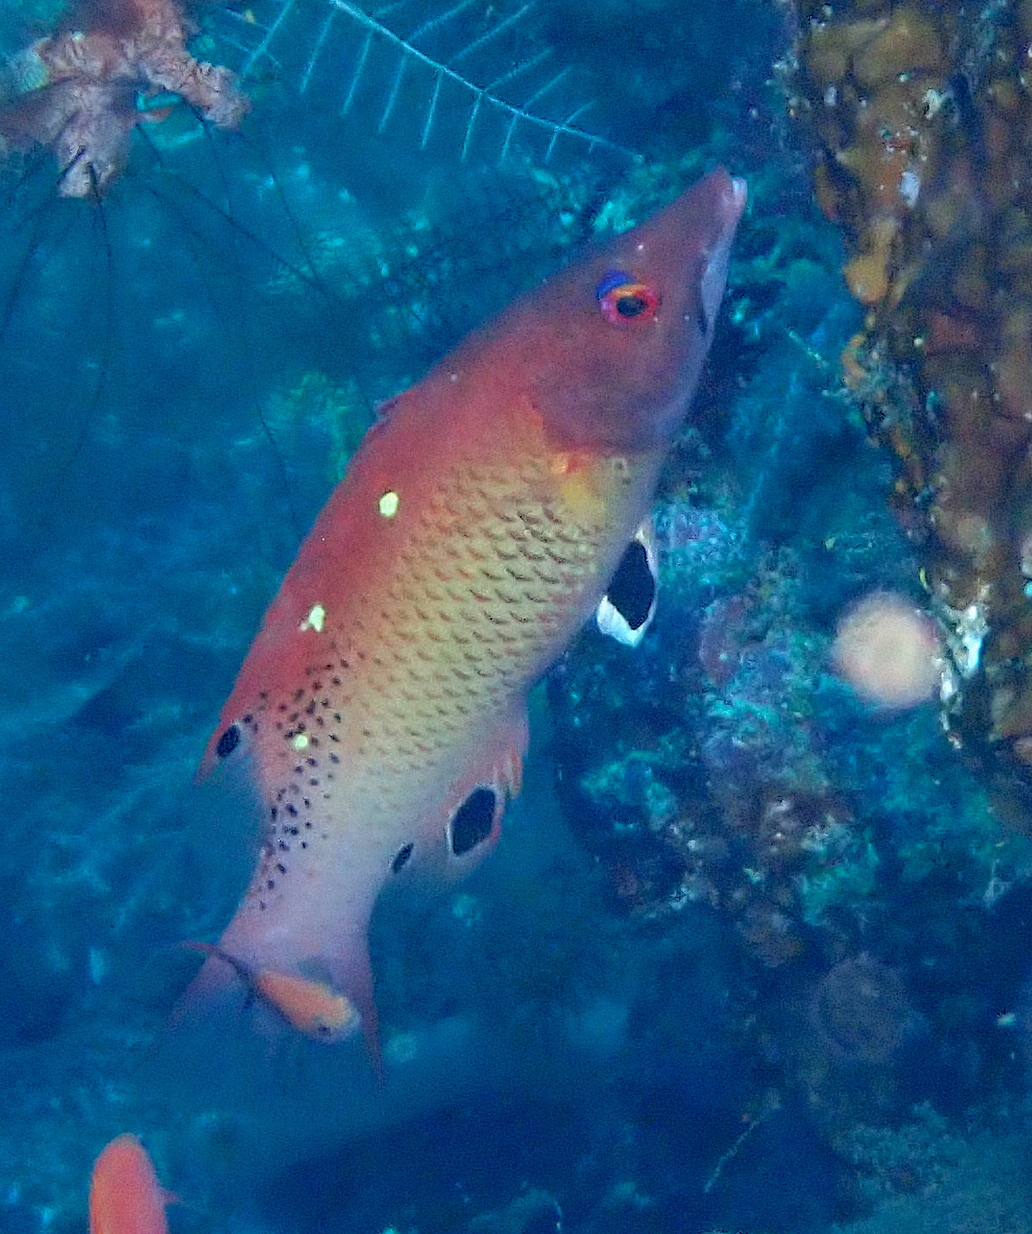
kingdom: Animalia
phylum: Chordata
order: Perciformes
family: Labridae
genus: Bodianus
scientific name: Bodianus dictynna
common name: Diana's hogfish
